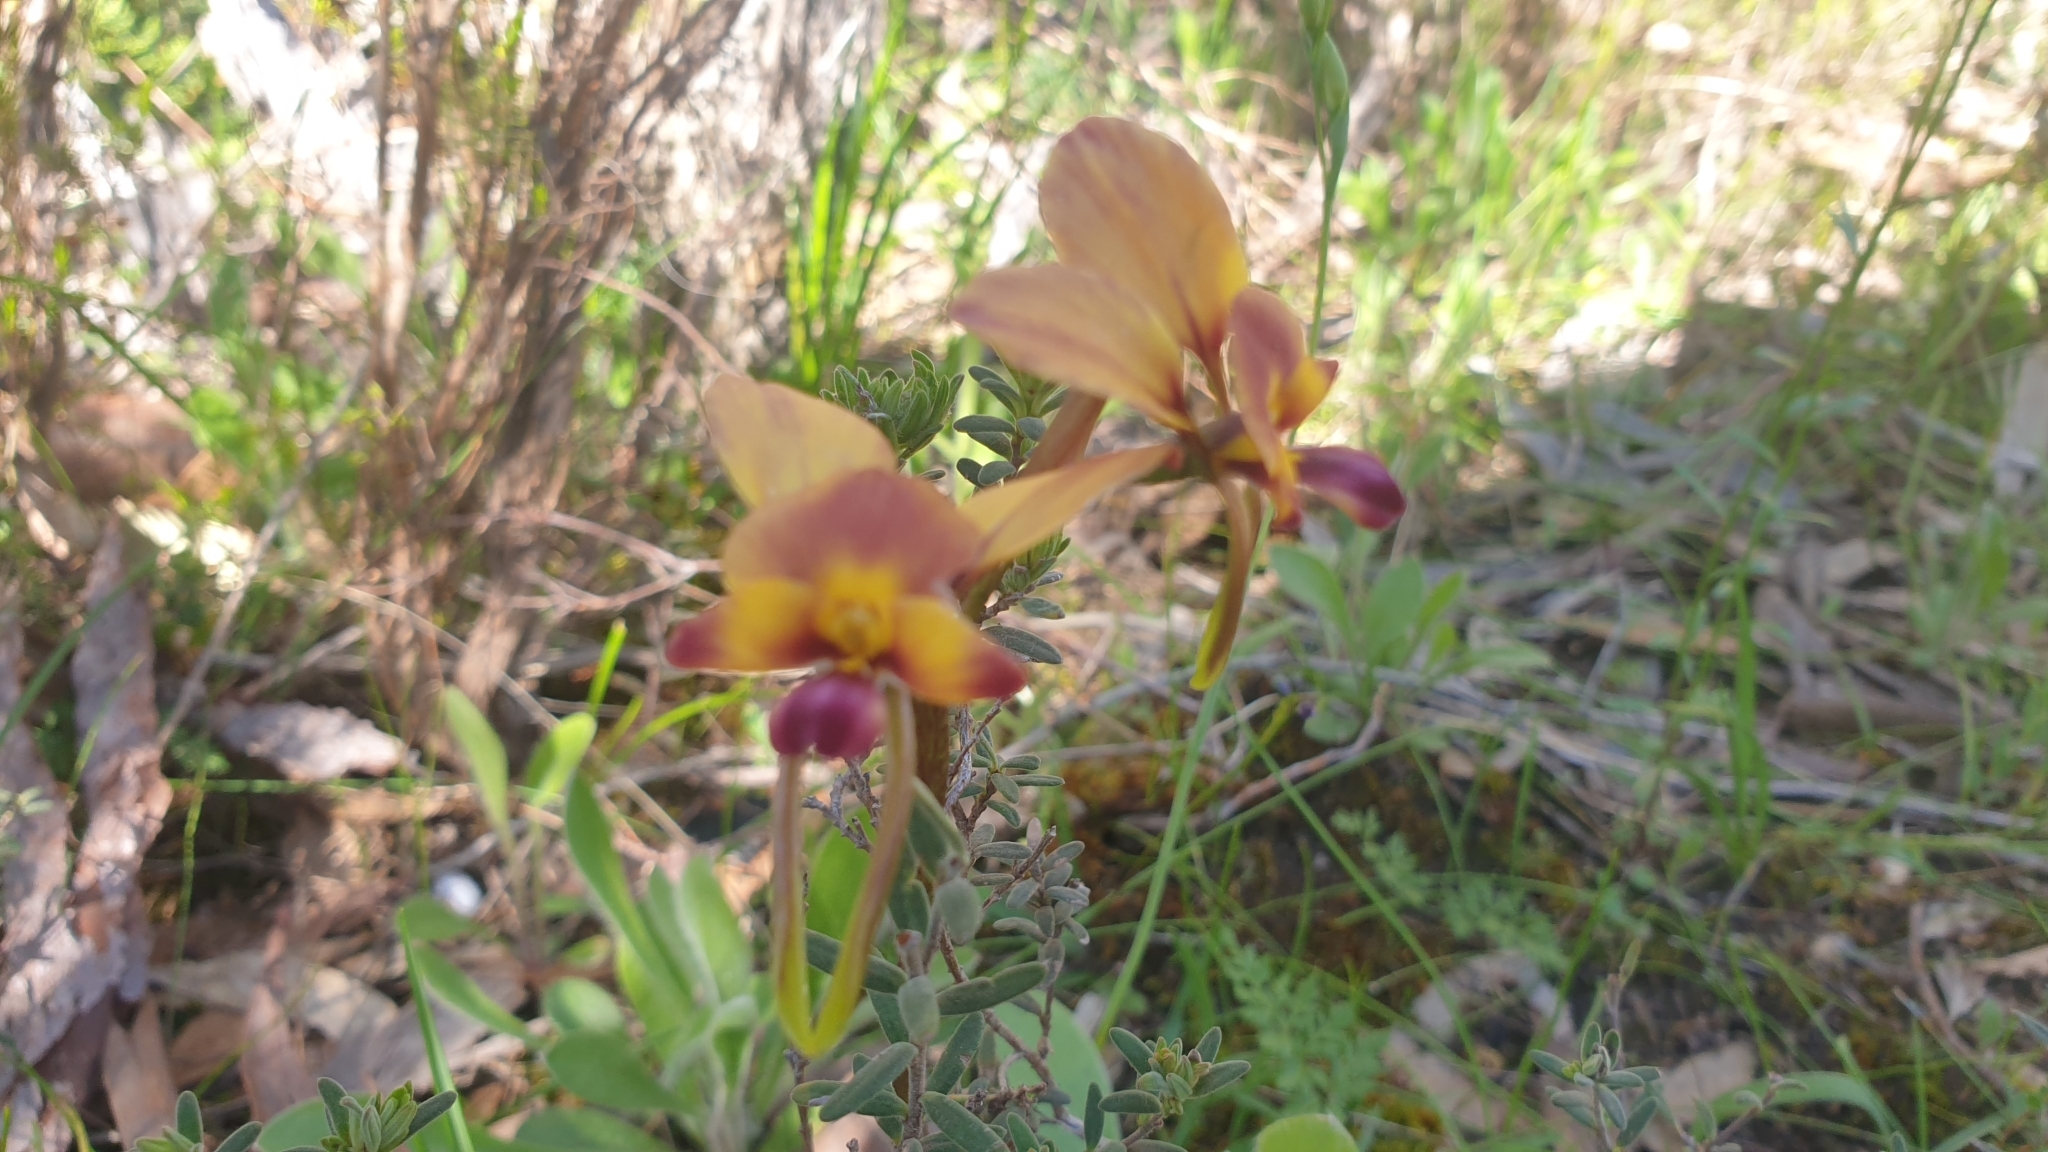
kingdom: Plantae
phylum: Tracheophyta
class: Liliopsida
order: Asparagales
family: Orchidaceae
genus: Diuris
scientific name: Diuris orientis
